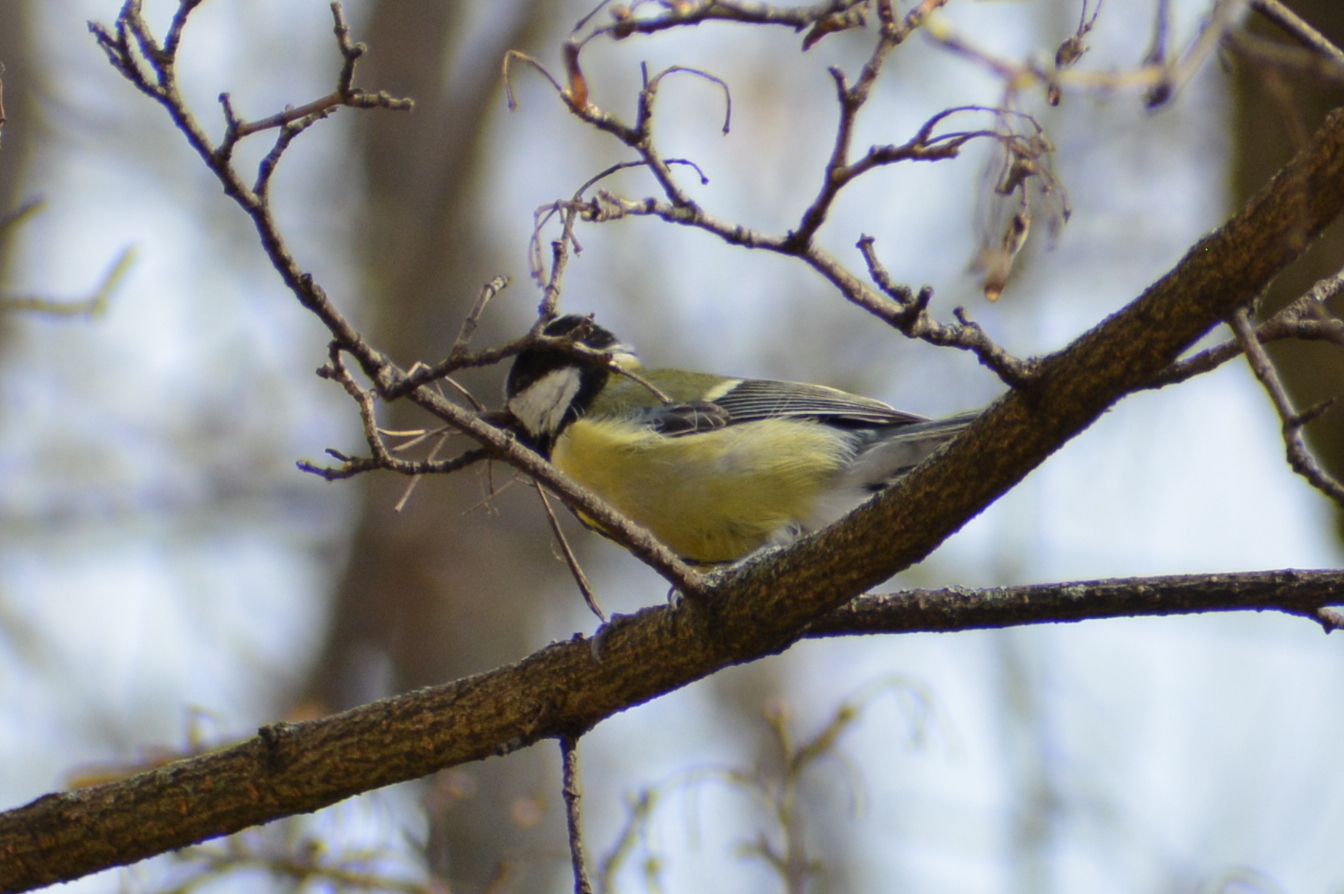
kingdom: Animalia
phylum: Chordata
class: Aves
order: Passeriformes
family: Paridae
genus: Parus
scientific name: Parus major
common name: Great tit
